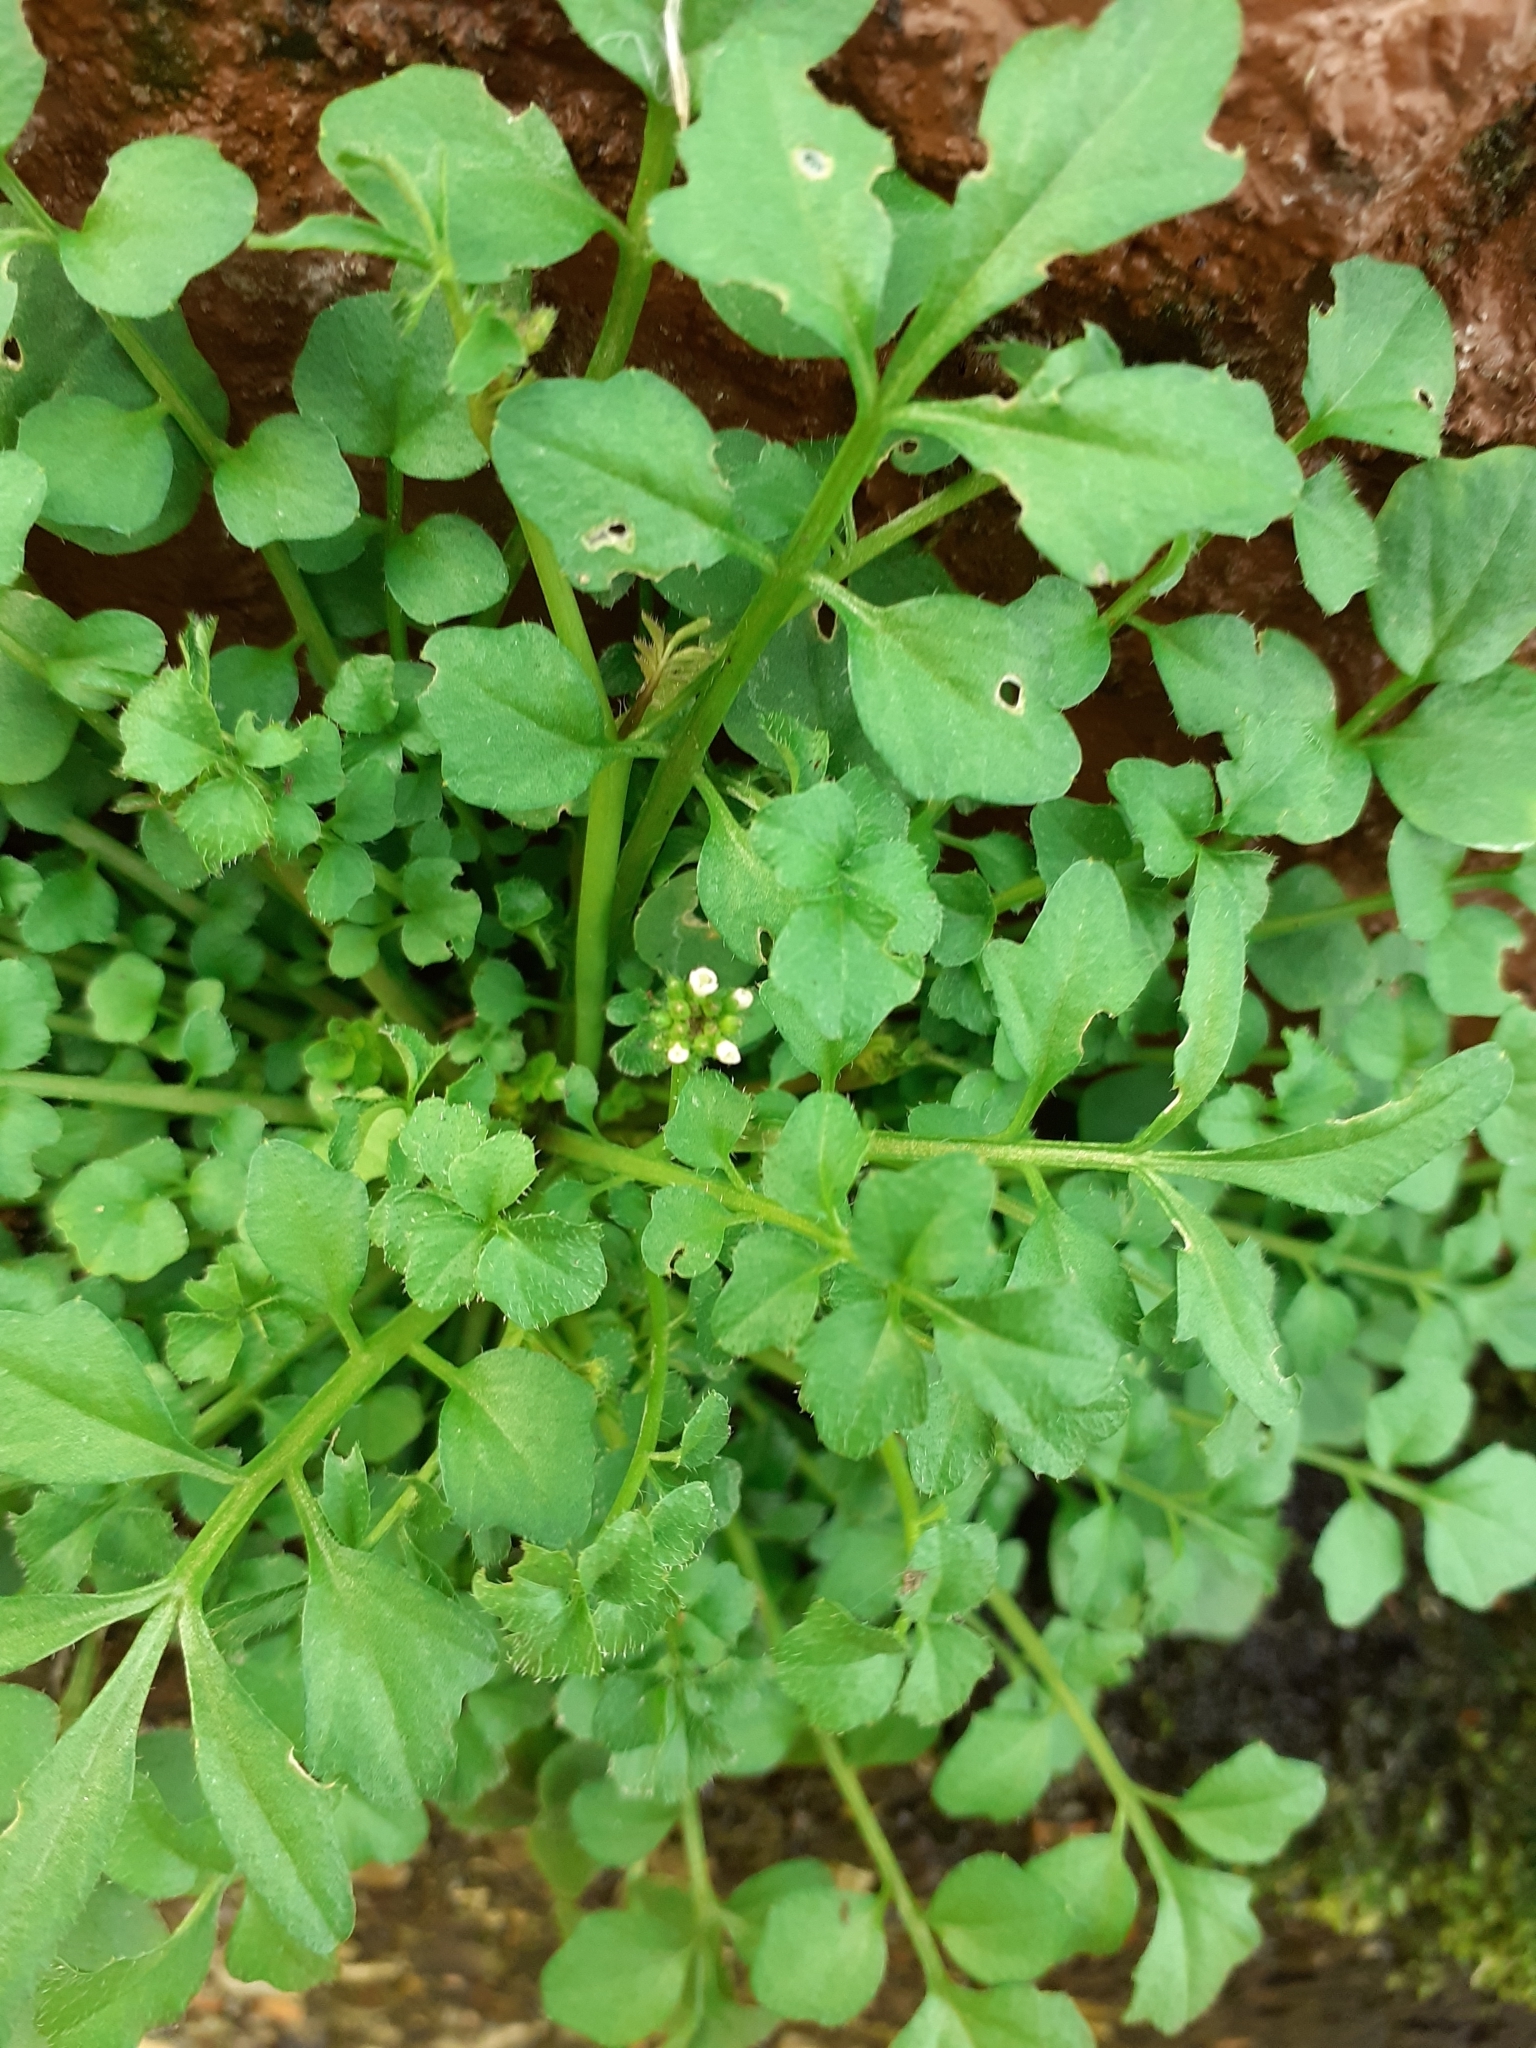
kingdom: Plantae
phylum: Tracheophyta
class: Magnoliopsida
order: Brassicales
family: Brassicaceae
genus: Cardamine
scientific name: Cardamine hirsuta
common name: Hairy bittercress
